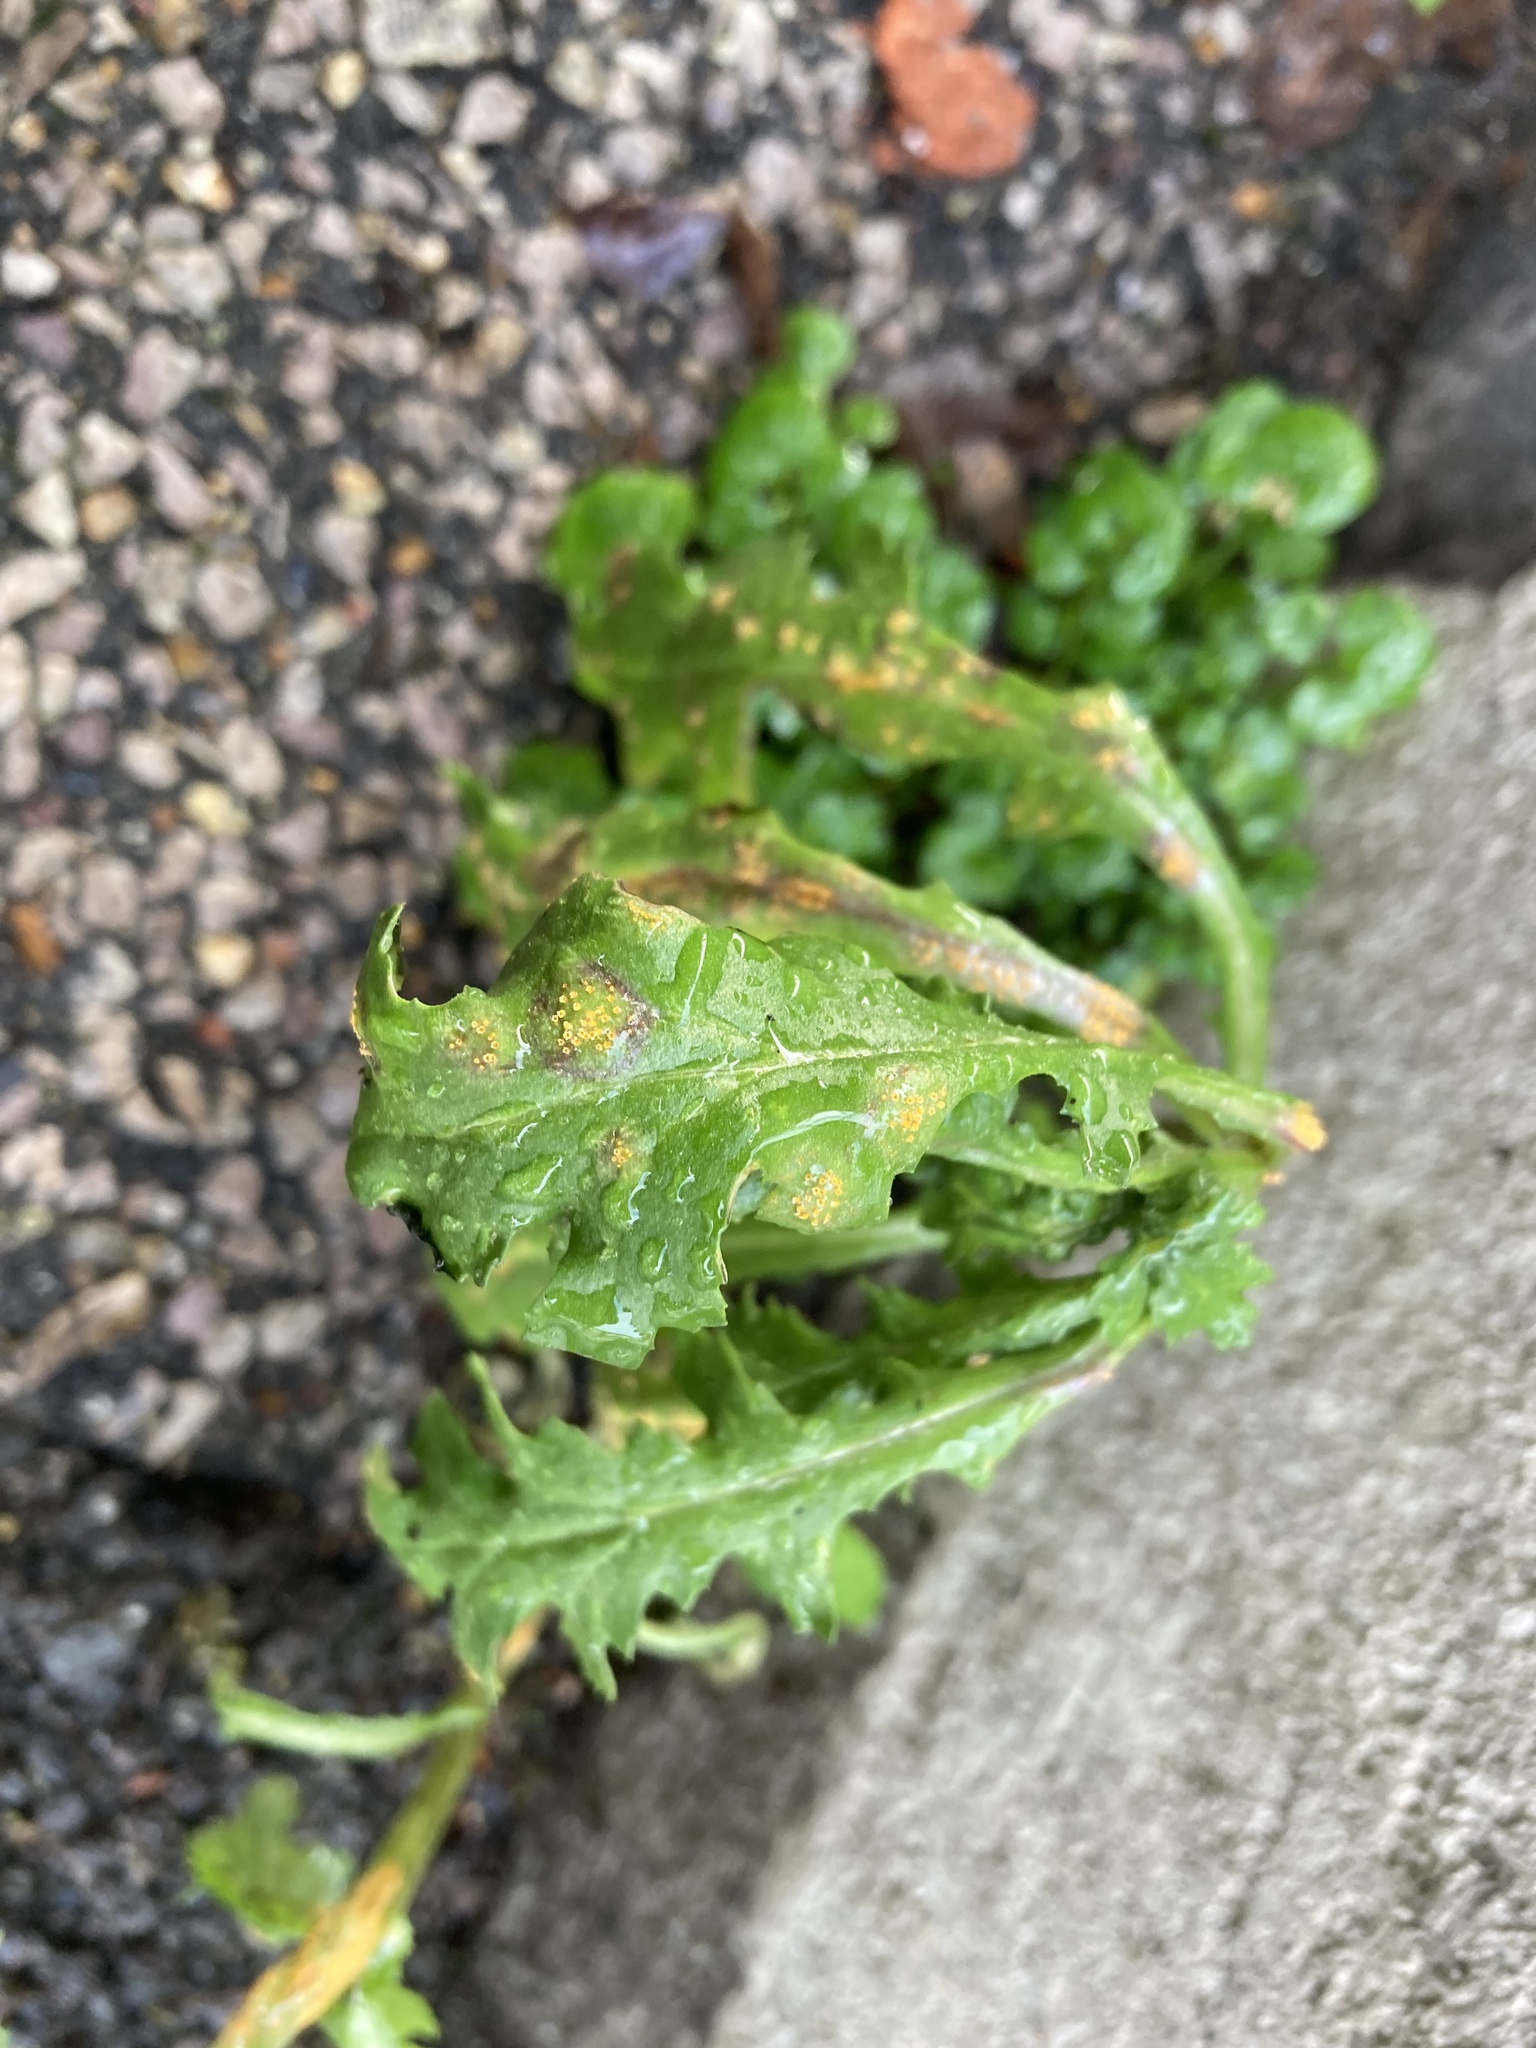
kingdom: Fungi
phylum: Basidiomycota
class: Pucciniomycetes
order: Pucciniales
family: Pucciniaceae
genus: Puccinia
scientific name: Puccinia lagenophorae
